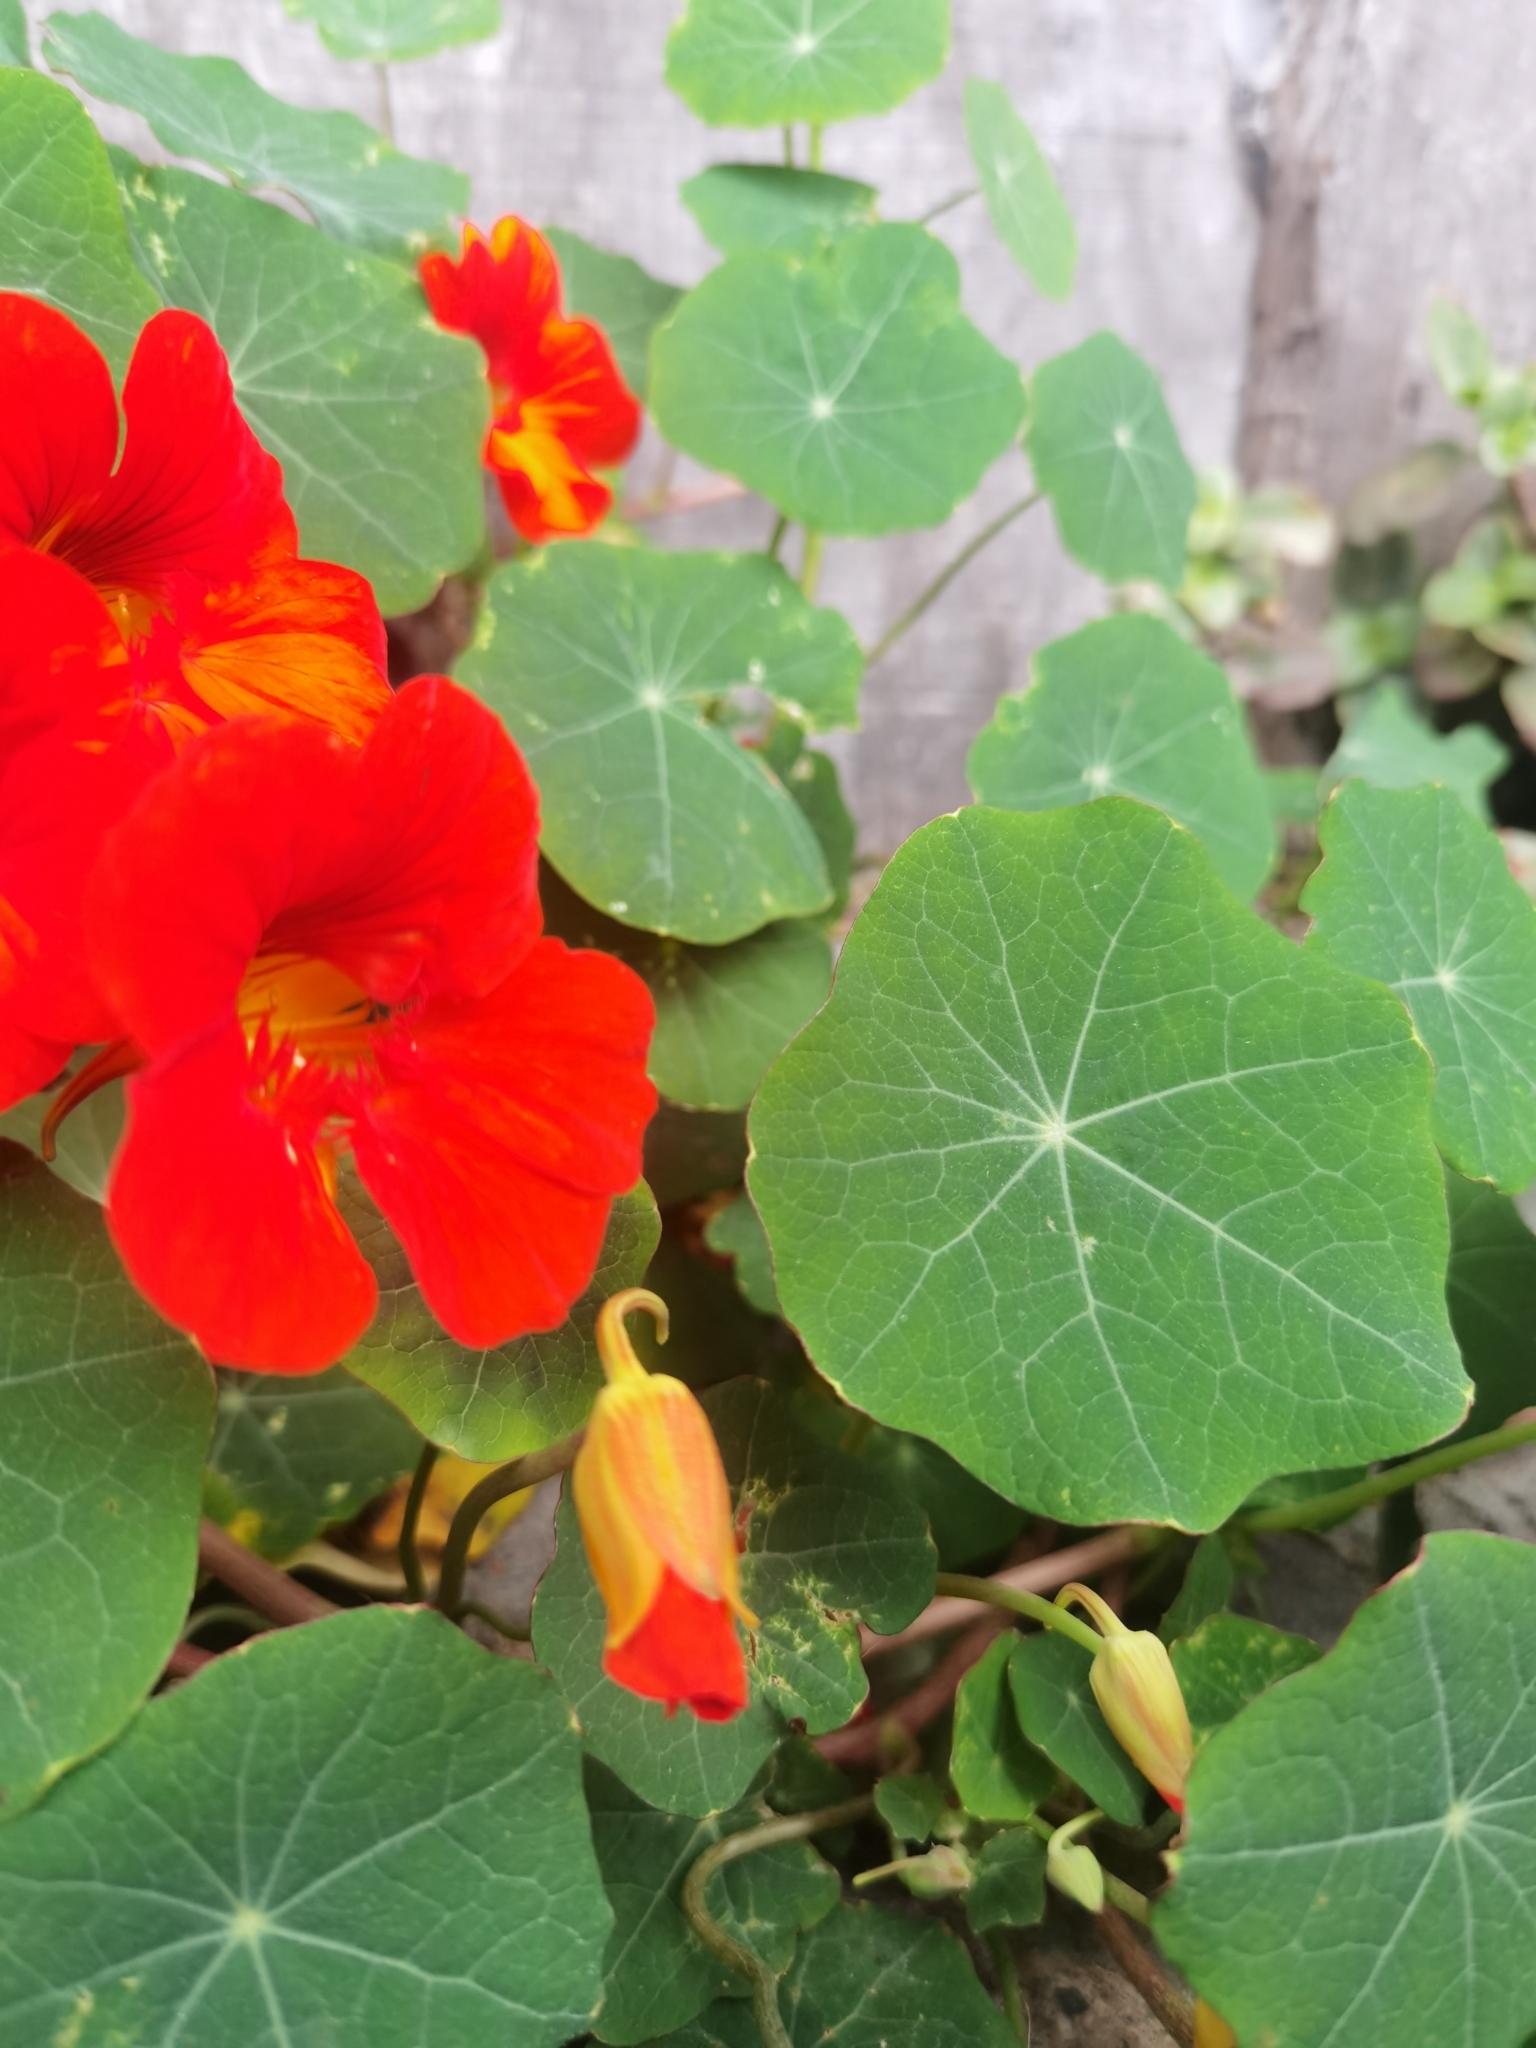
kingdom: Plantae
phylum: Tracheophyta
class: Magnoliopsida
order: Brassicales
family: Tropaeolaceae
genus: Tropaeolum
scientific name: Tropaeolum majus
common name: Nasturtium
